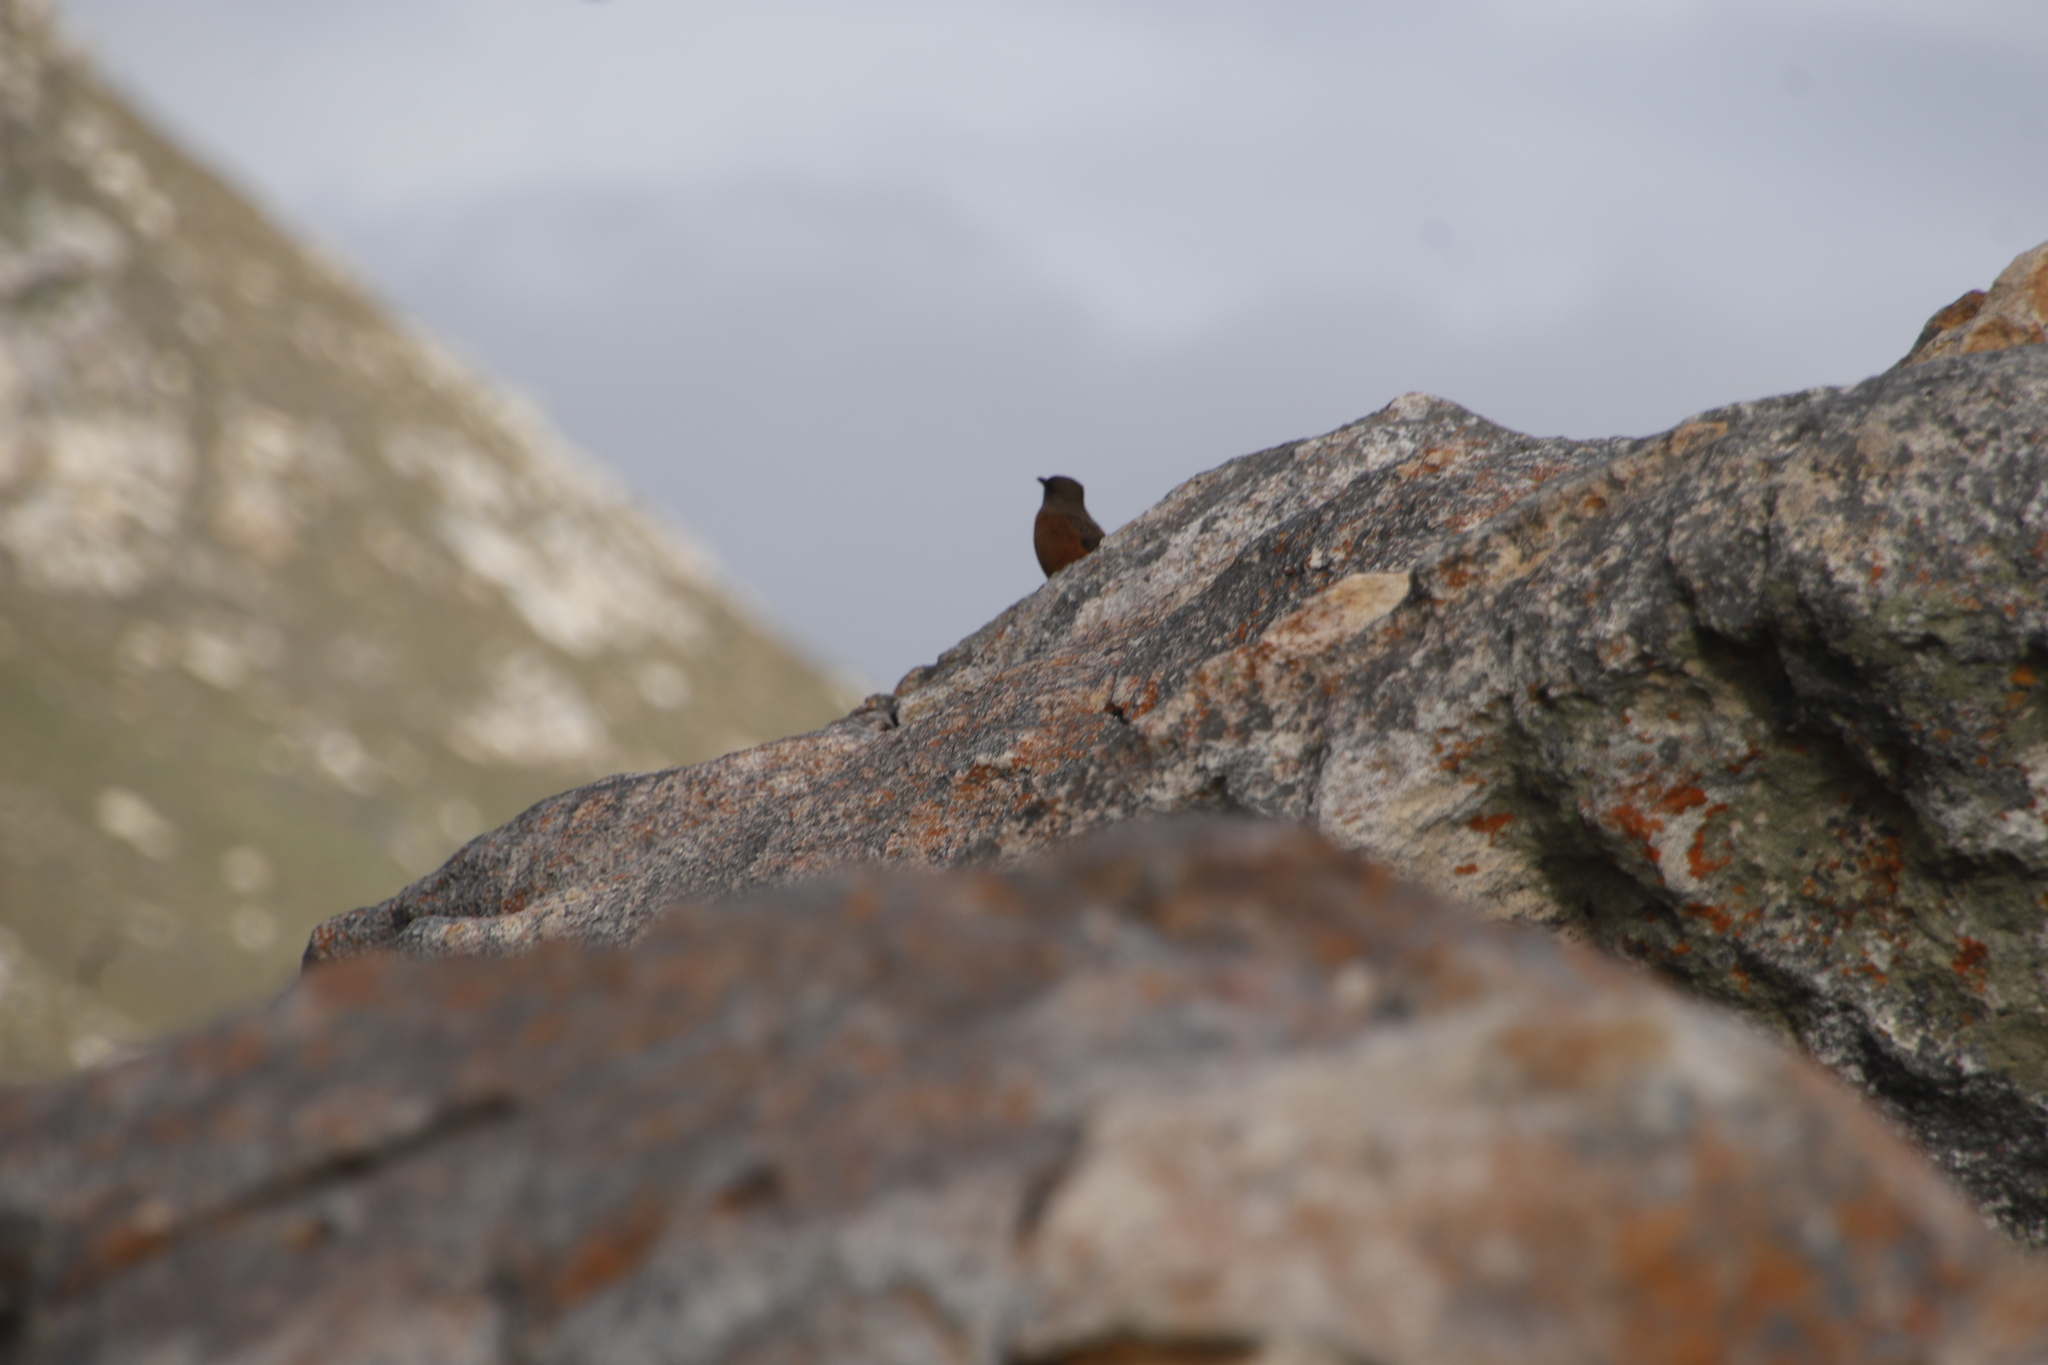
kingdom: Animalia
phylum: Chordata
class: Aves
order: Passeriformes
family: Muscicapidae
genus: Monticola
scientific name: Monticola rupestris
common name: Cape rock thrush
